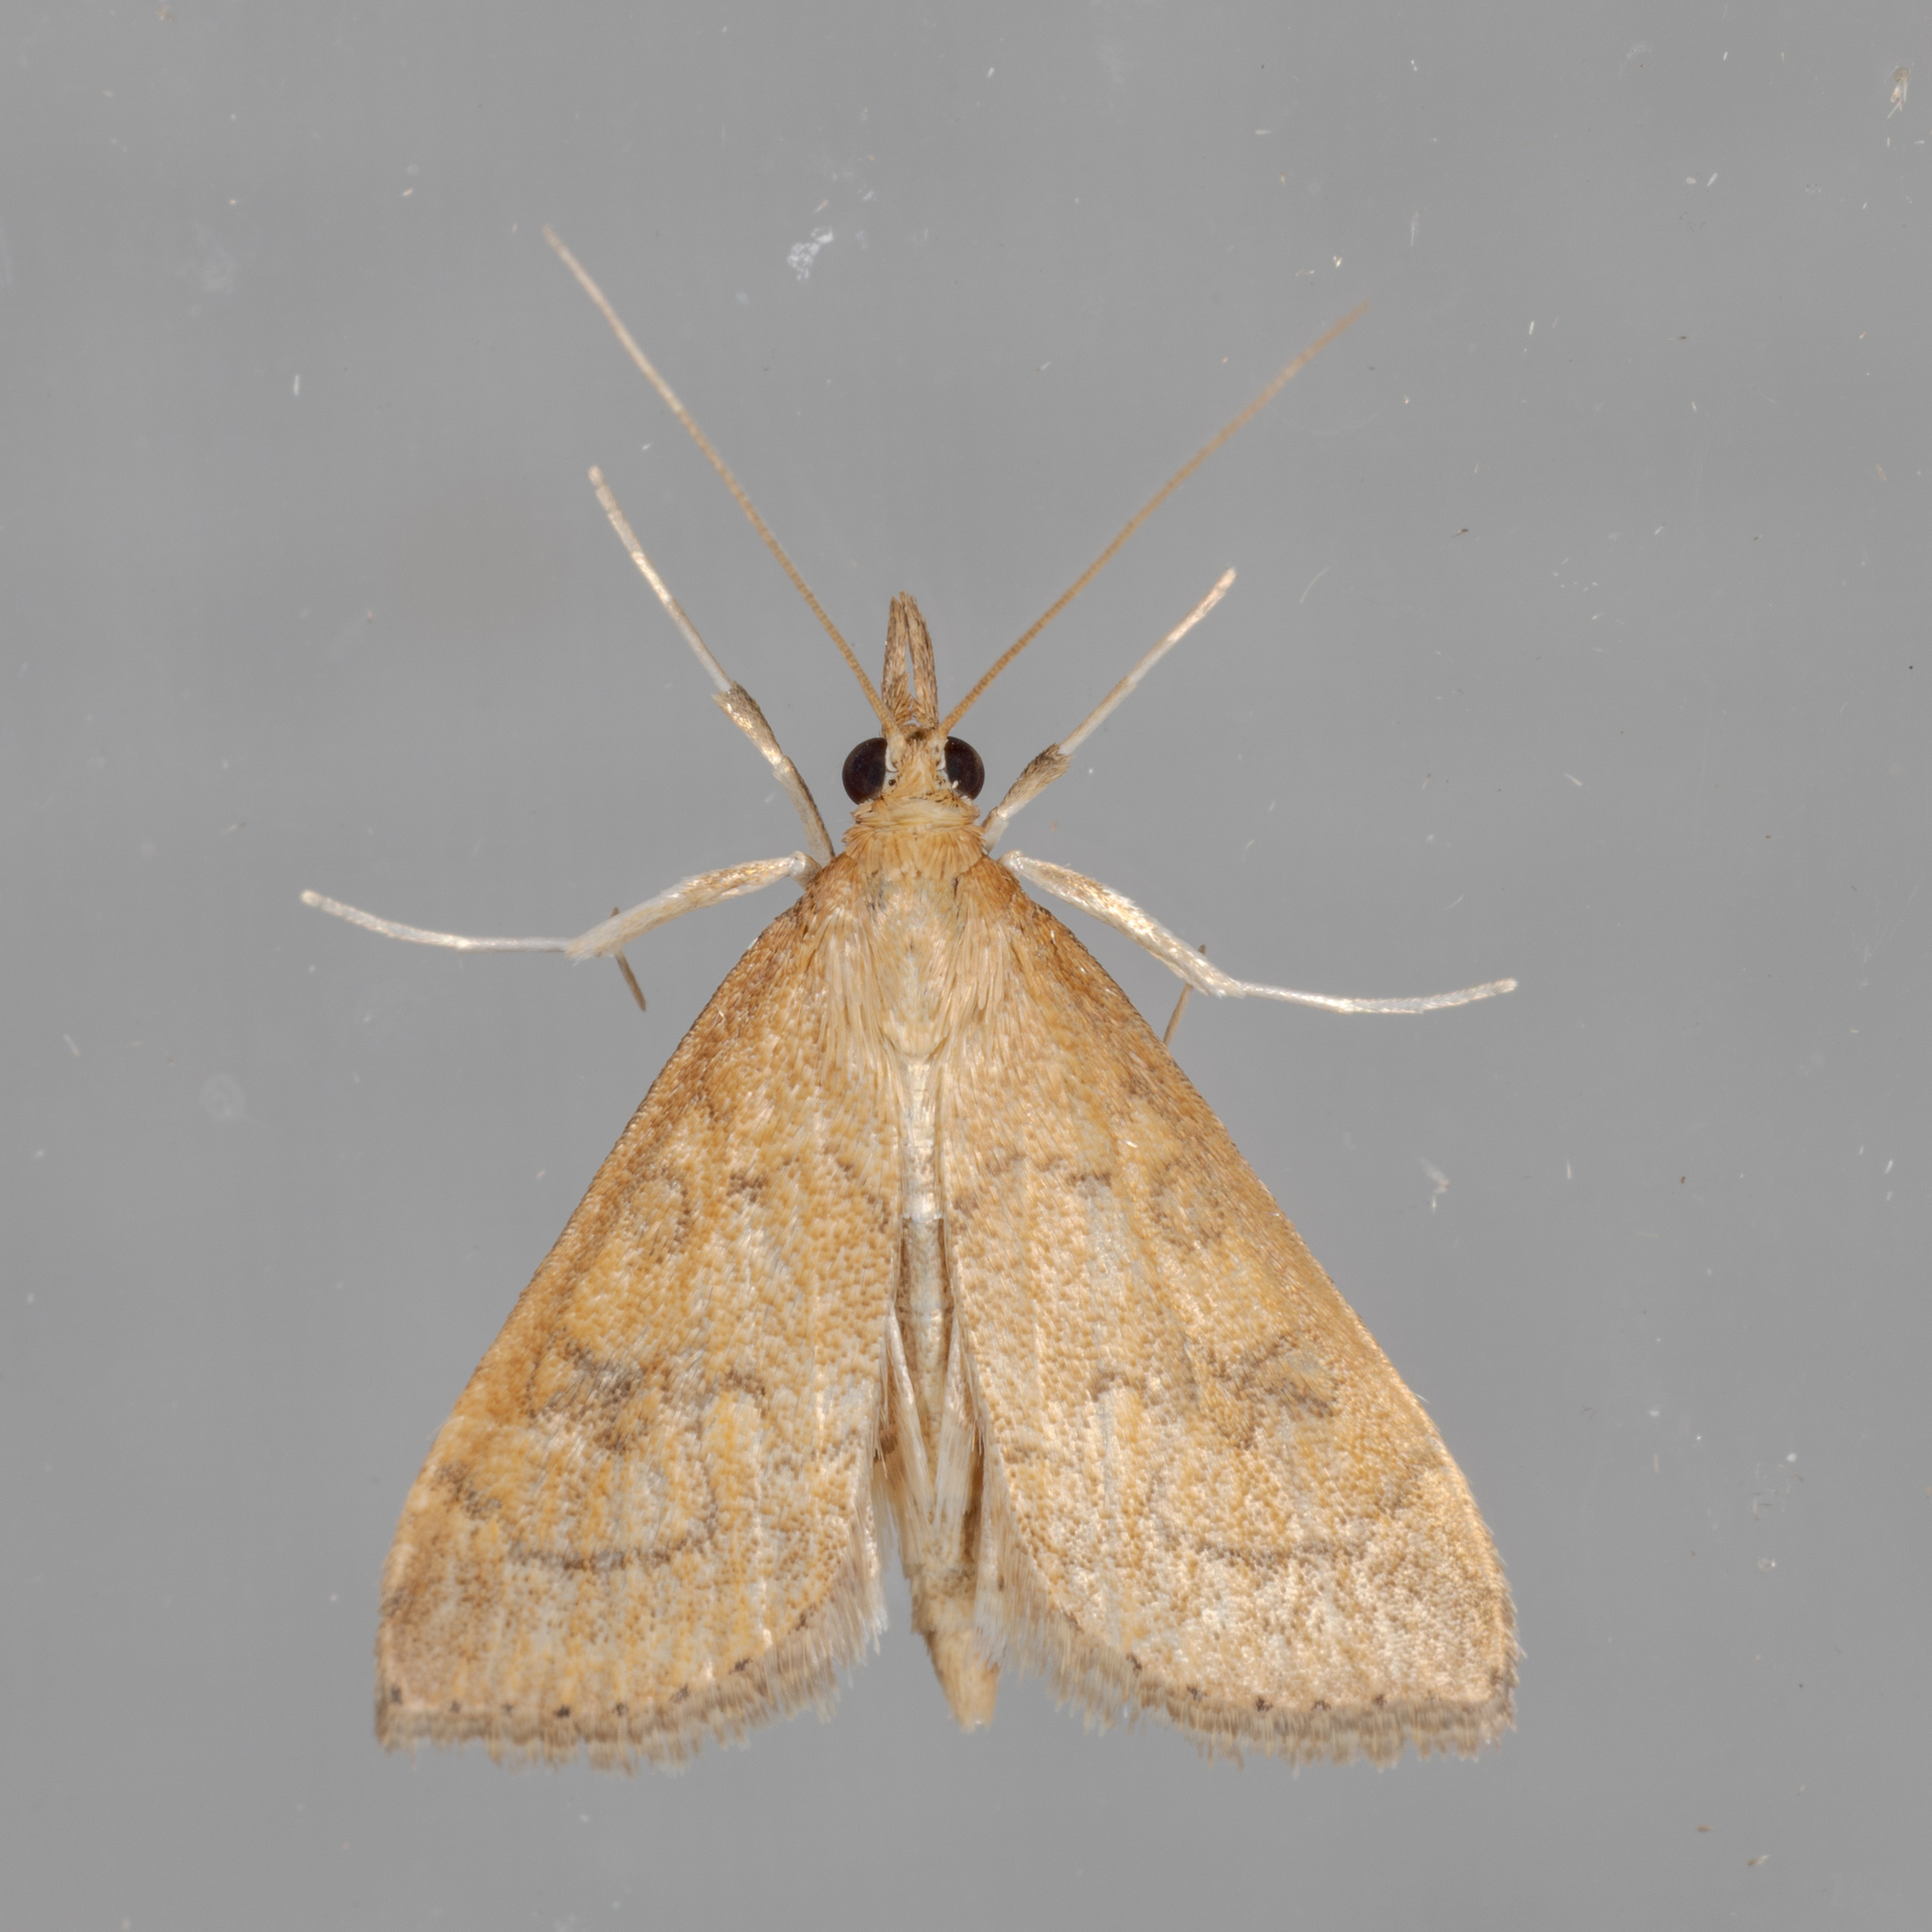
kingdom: Animalia
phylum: Arthropoda
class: Insecta
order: Lepidoptera
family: Crambidae
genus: Udea
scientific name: Udea rubigalis
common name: Celery leaftier moth
